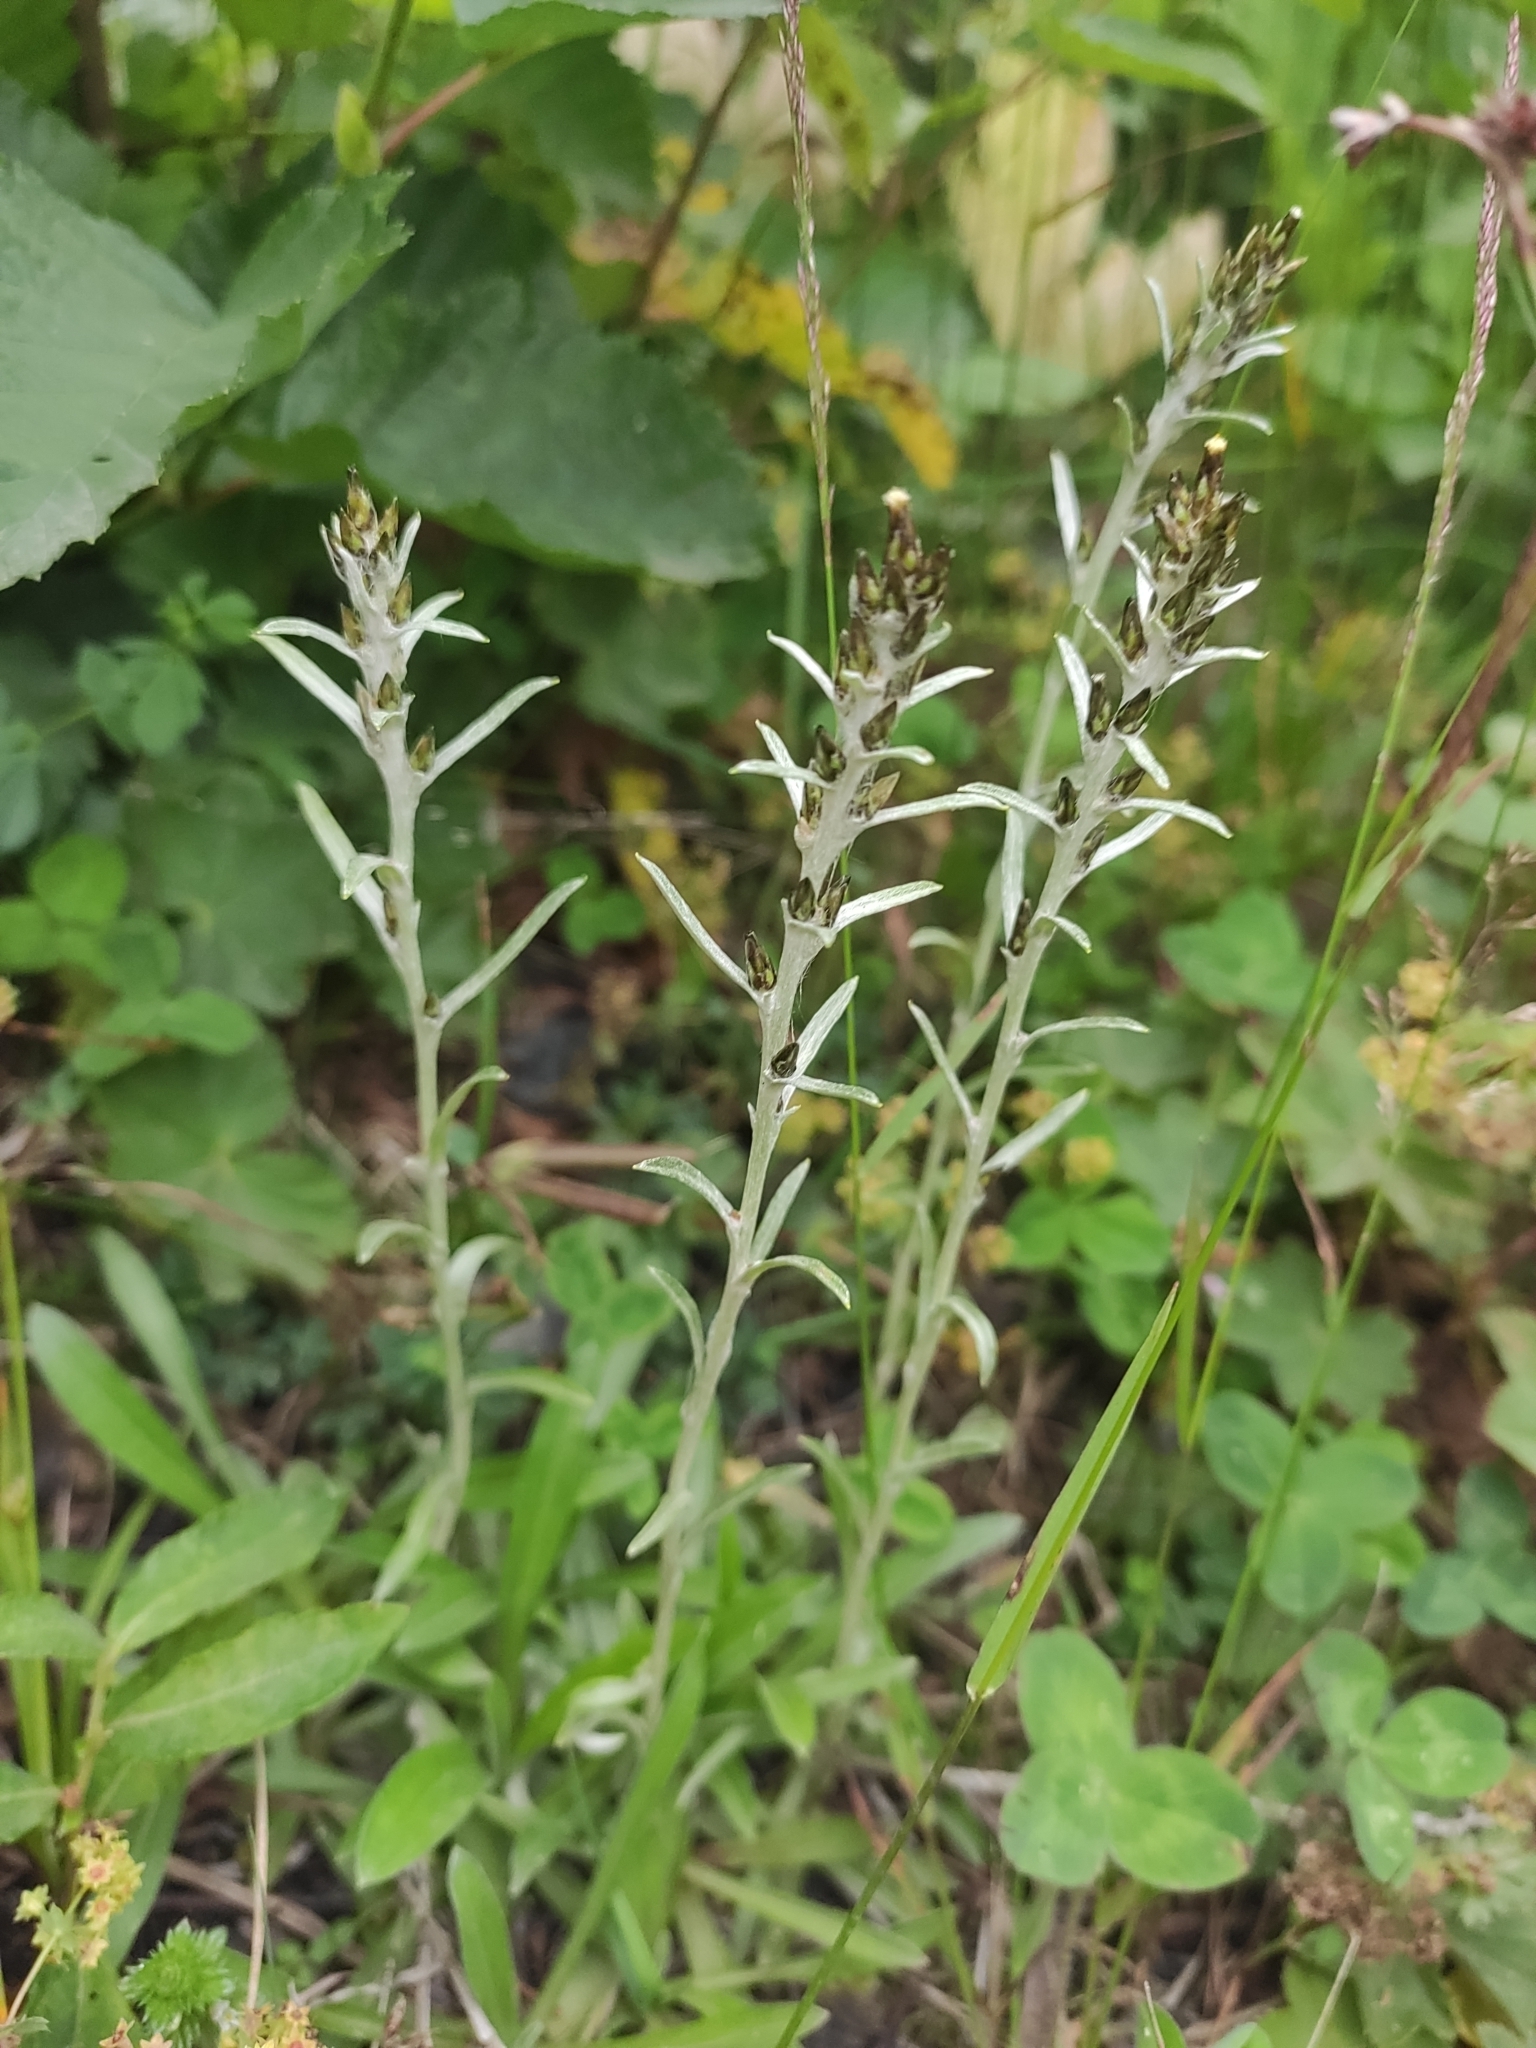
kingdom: Plantae
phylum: Tracheophyta
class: Magnoliopsida
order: Asterales
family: Asteraceae
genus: Omalotheca
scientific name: Omalotheca sylvatica
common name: Heath cudweed
